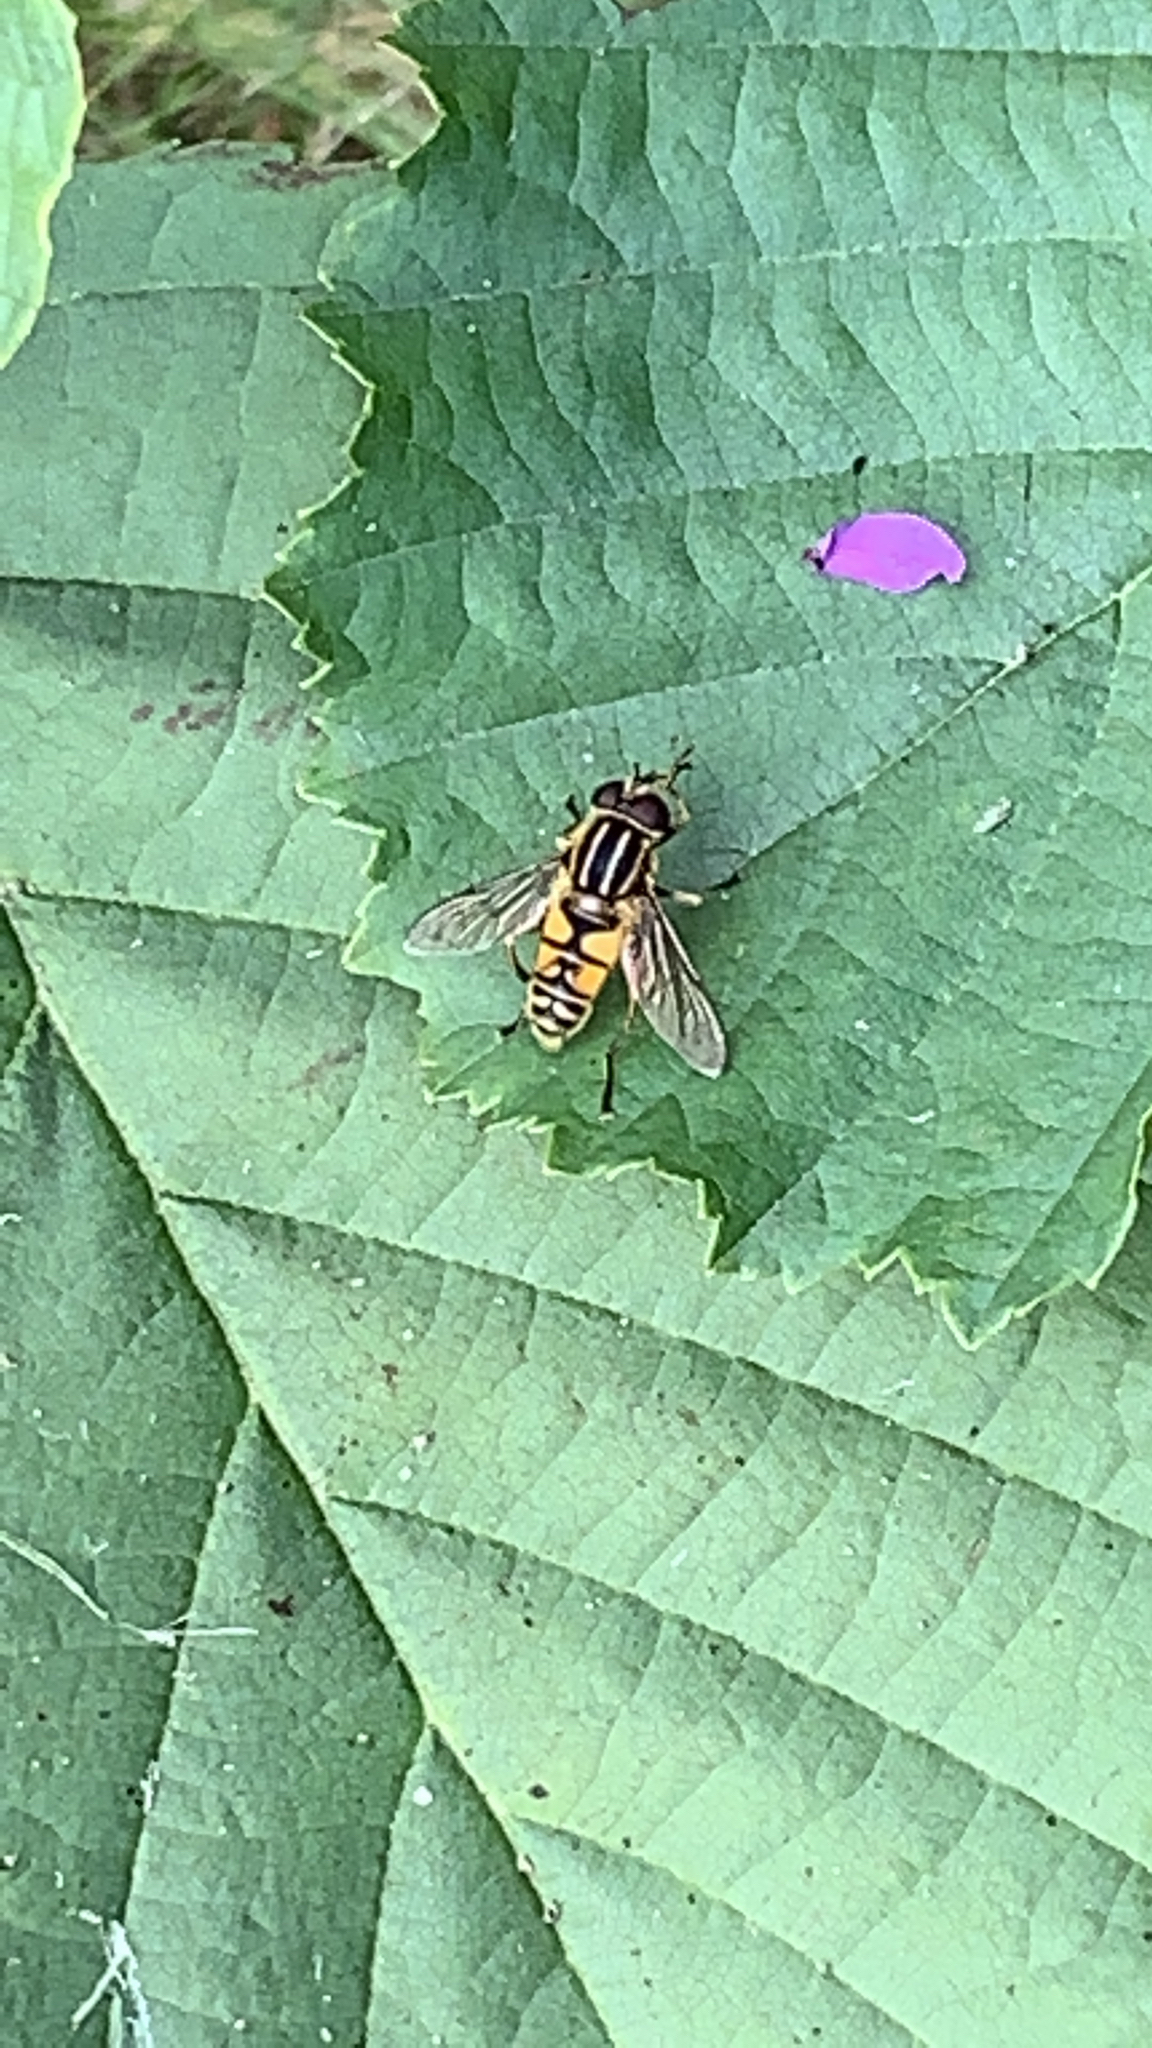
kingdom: Animalia
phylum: Arthropoda
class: Insecta
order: Diptera
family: Syrphidae
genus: Helophilus
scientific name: Helophilus pendulus
